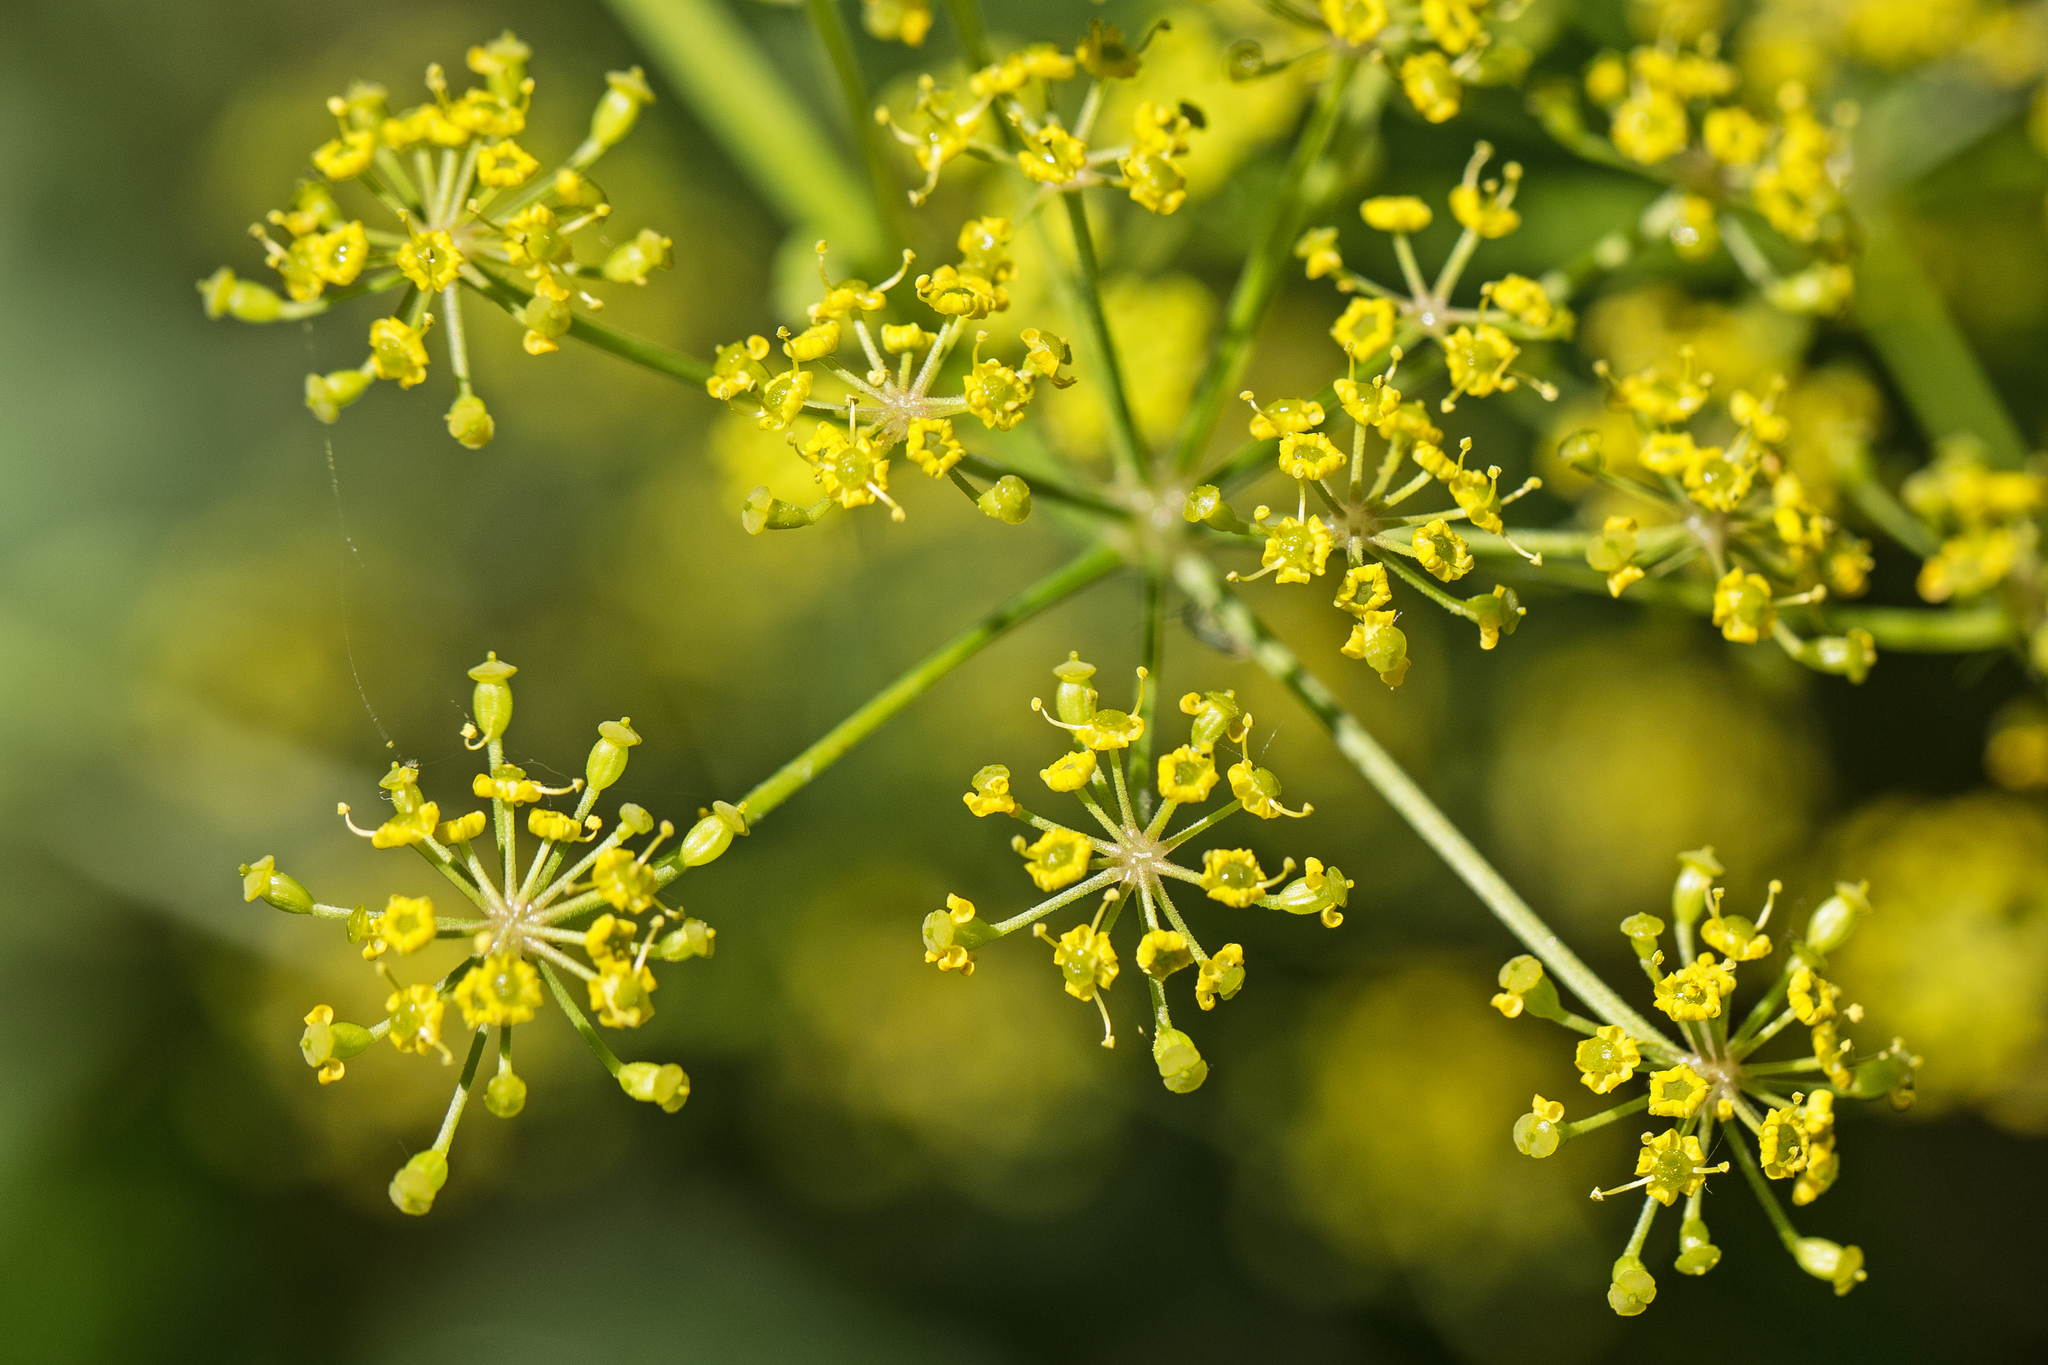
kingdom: Plantae
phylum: Tracheophyta
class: Magnoliopsida
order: Apiales
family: Apiaceae
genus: Pastinaca
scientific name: Pastinaca sativa
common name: Wild parsnip
